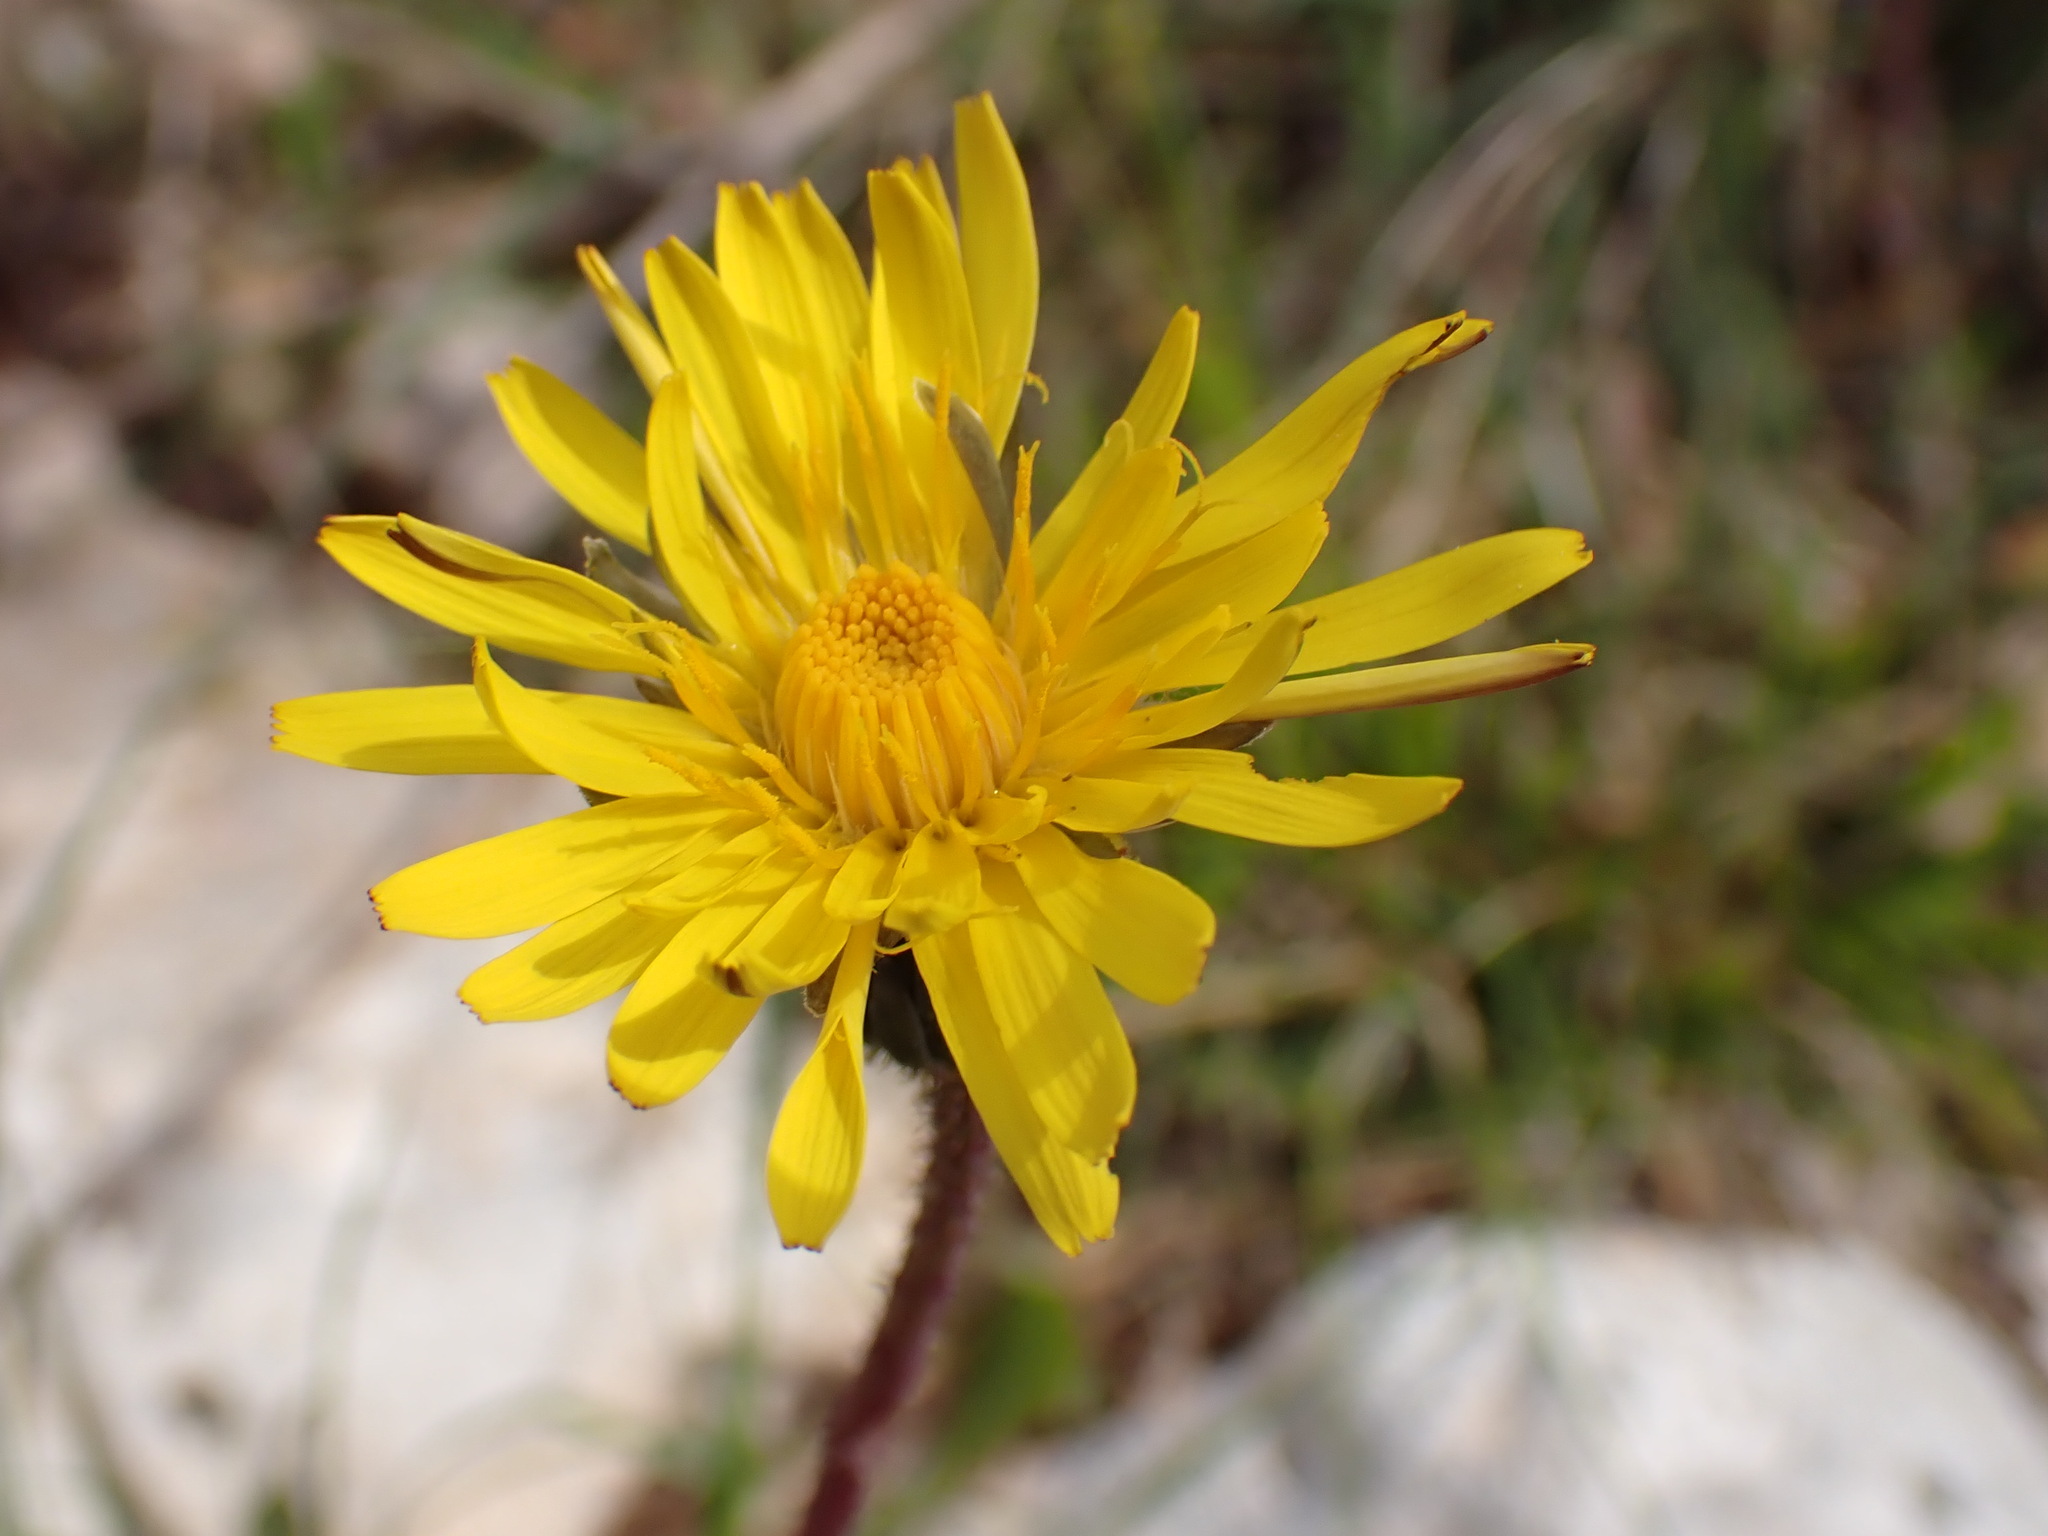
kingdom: Plantae
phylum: Tracheophyta
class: Magnoliopsida
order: Asterales
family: Asteraceae
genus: Aetheorhiza
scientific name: Aetheorhiza bulbosa
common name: Tuberous hawk's-beard
